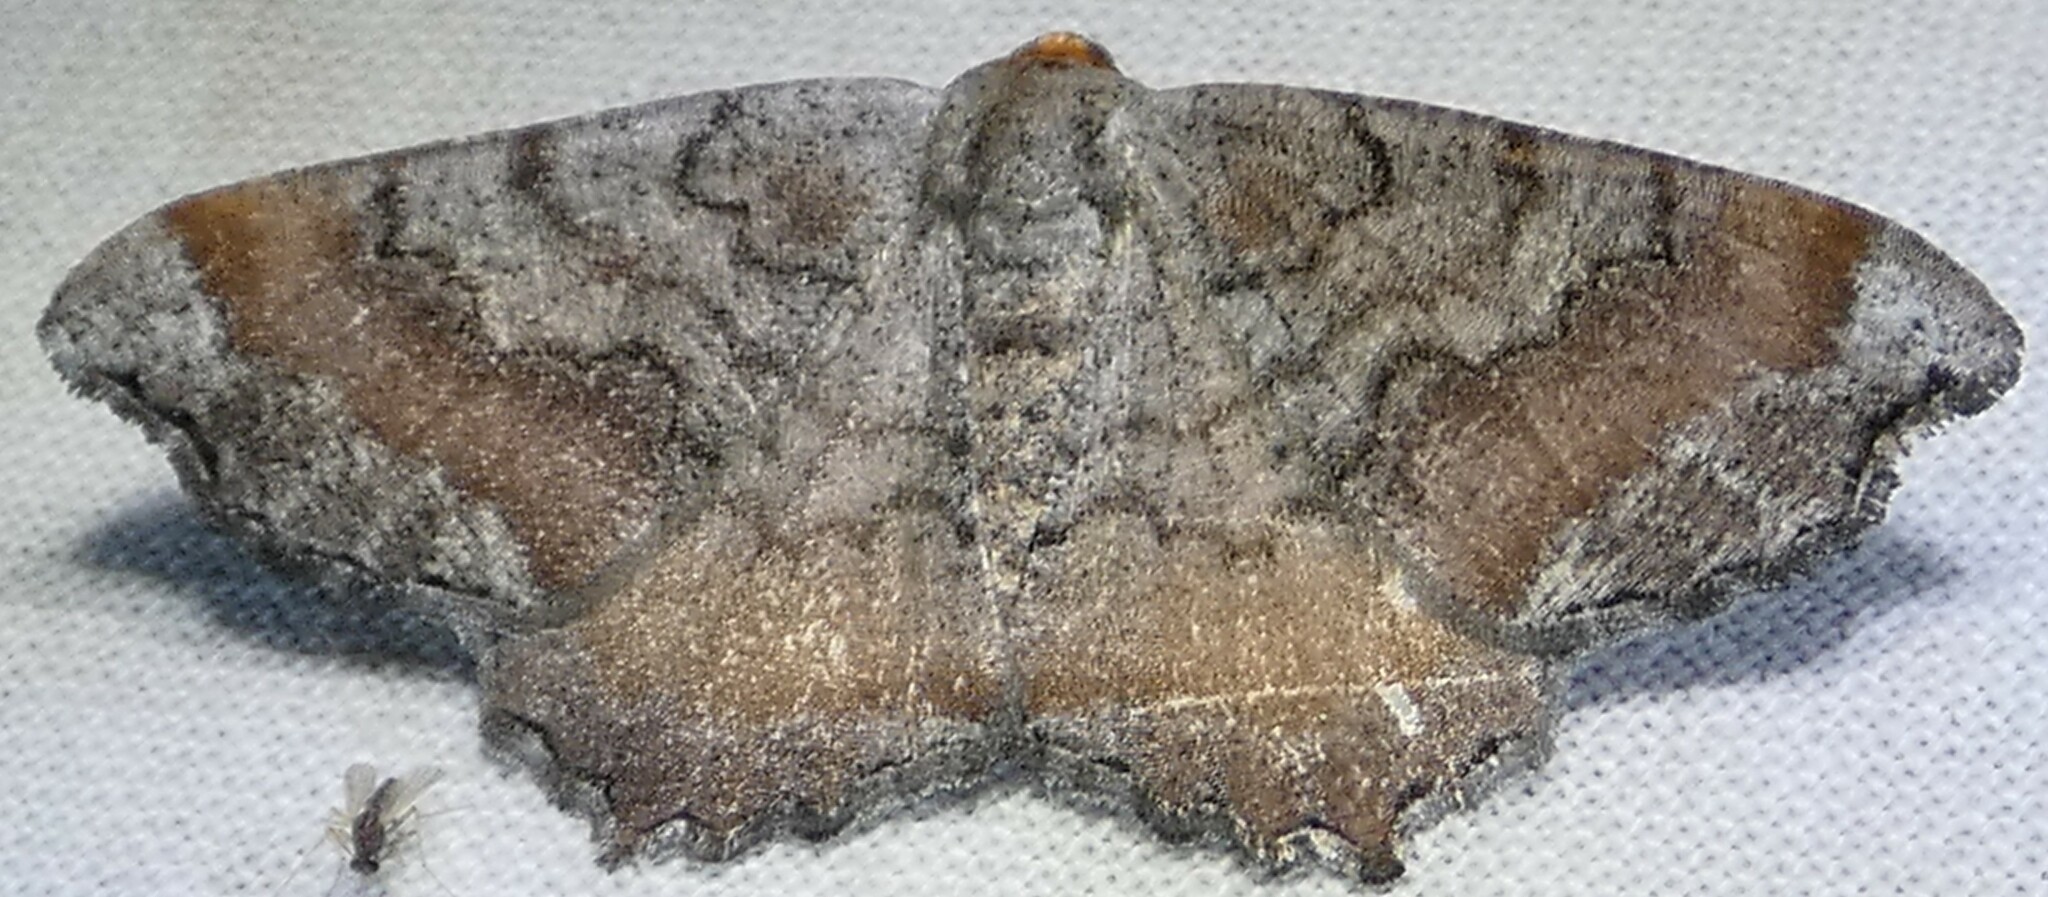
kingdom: Animalia
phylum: Arthropoda
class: Insecta
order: Lepidoptera
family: Geometridae
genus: Macaria
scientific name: Macaria distribuaria
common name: Southern chocolate angle
